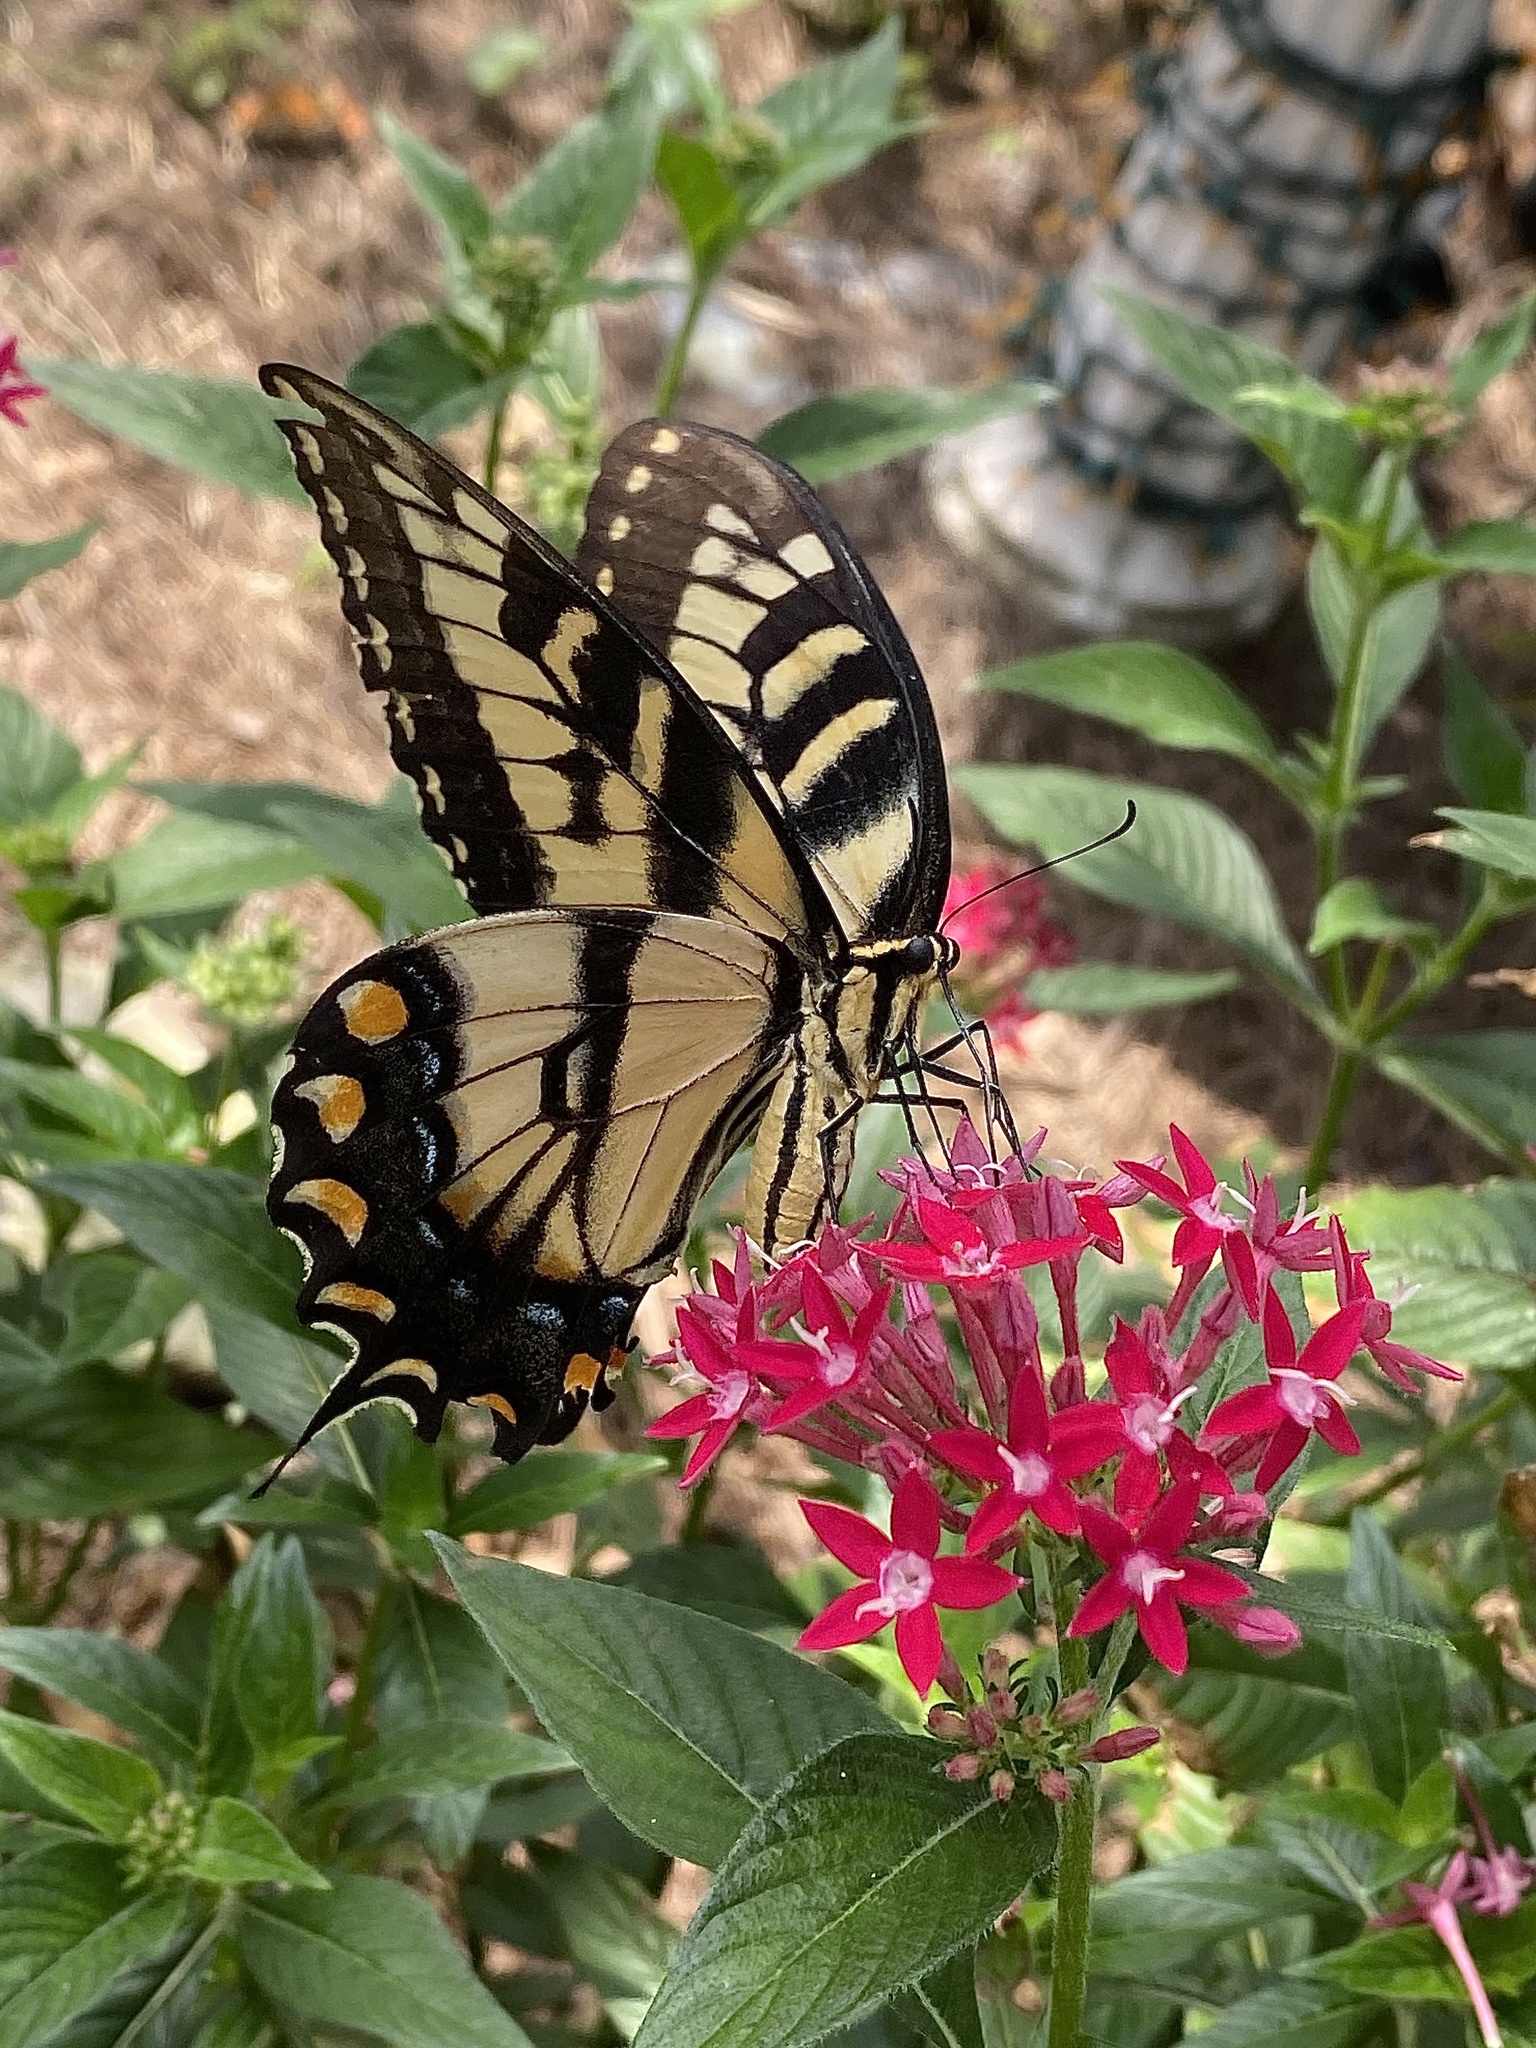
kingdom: Animalia
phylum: Arthropoda
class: Insecta
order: Lepidoptera
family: Papilionidae
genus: Papilio
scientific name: Papilio glaucus
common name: Tiger swallowtail
